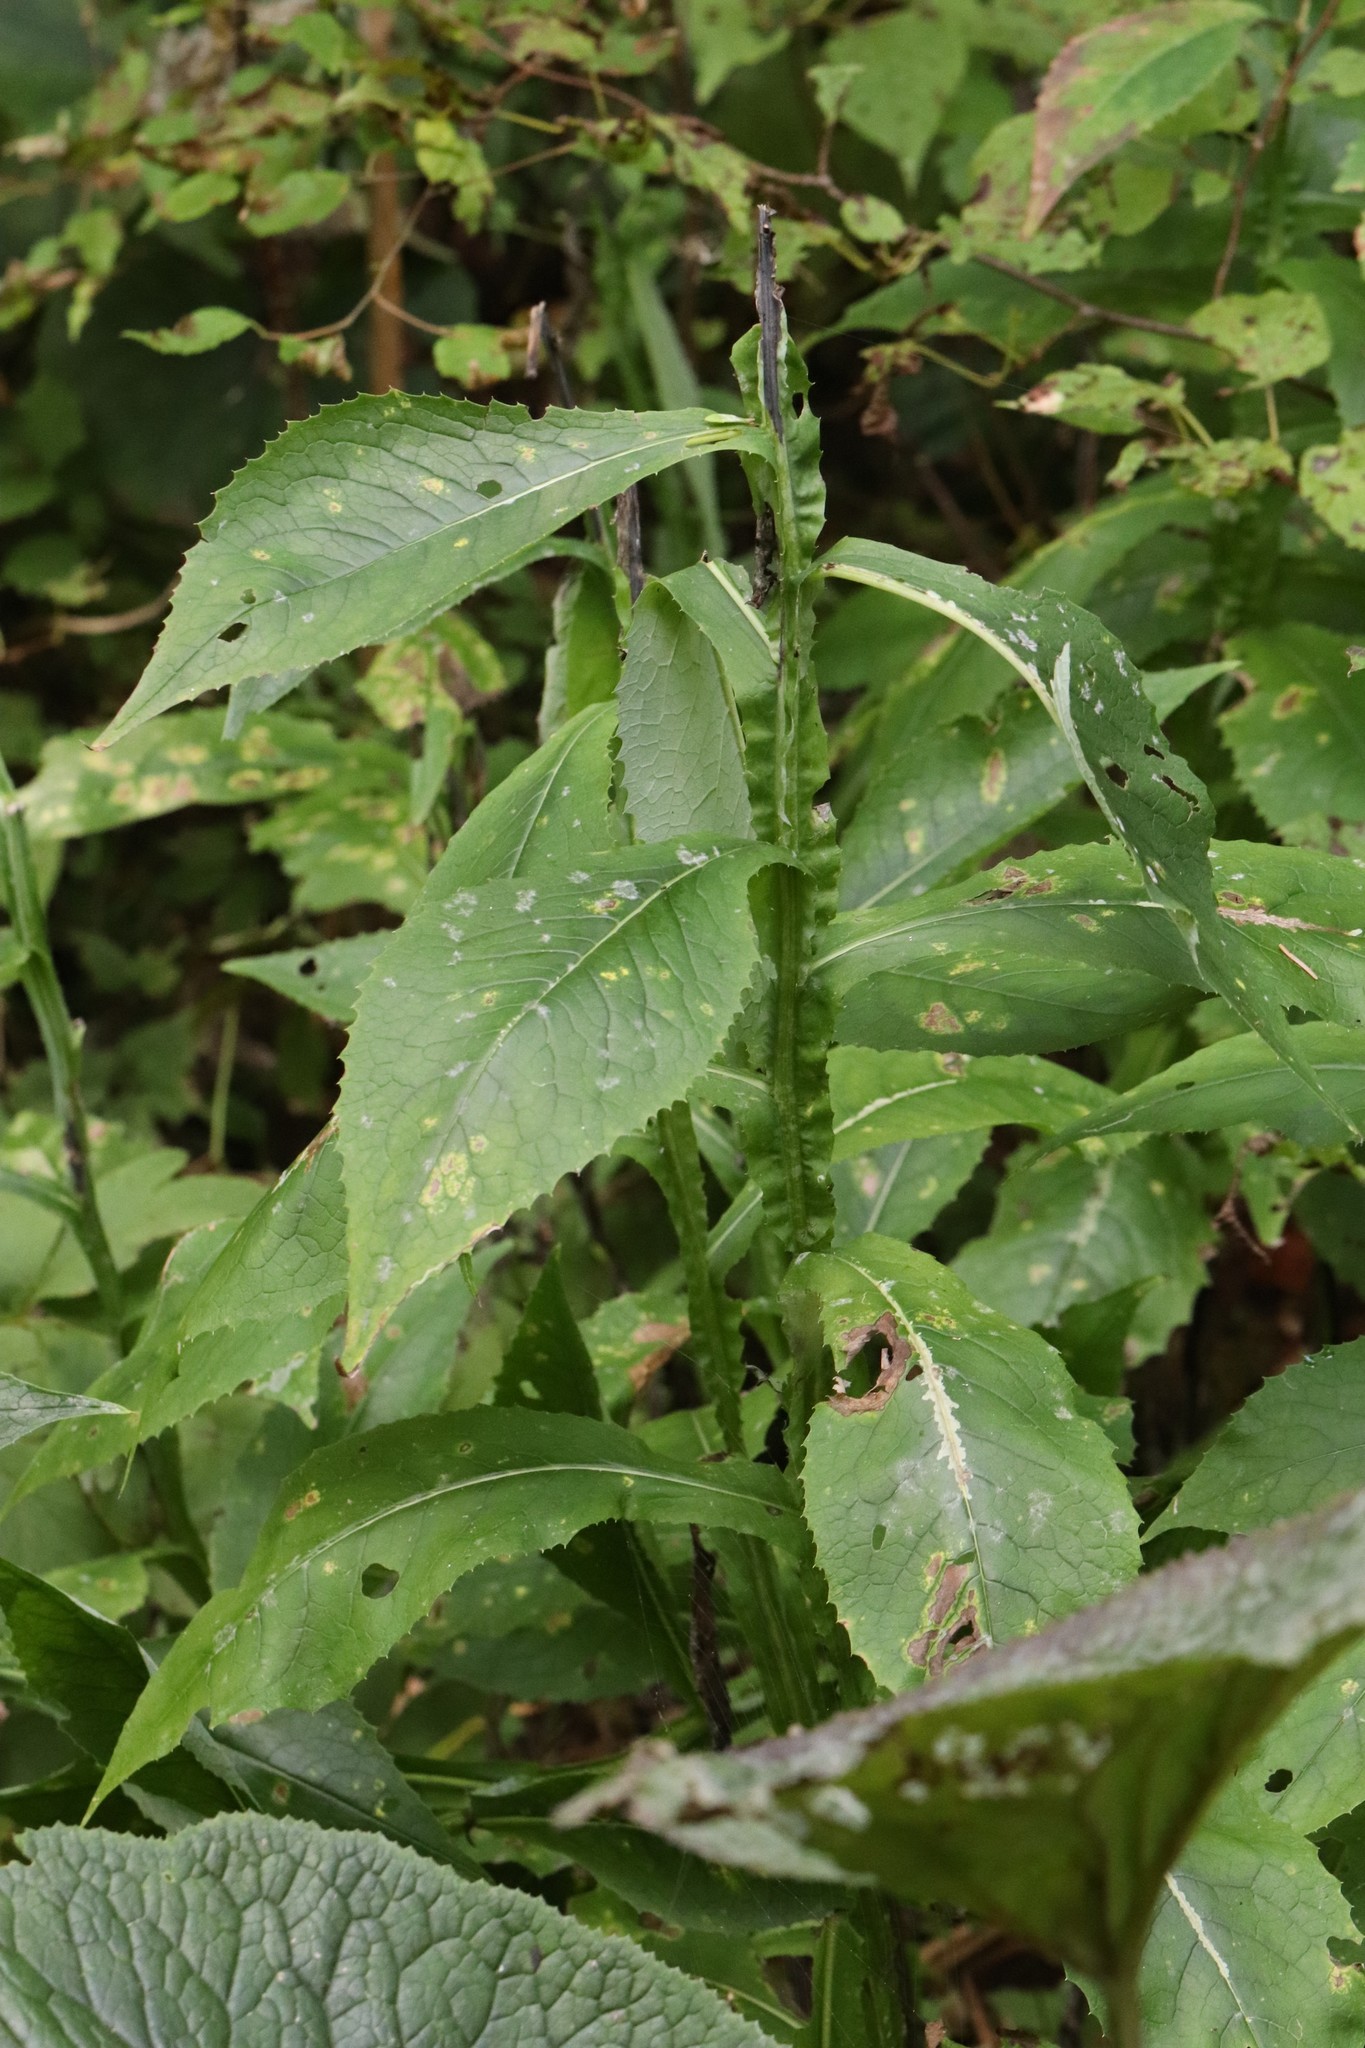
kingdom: Plantae
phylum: Tracheophyta
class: Magnoliopsida
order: Asterales
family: Asteraceae
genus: Saussurea
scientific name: Saussurea neoserrata
